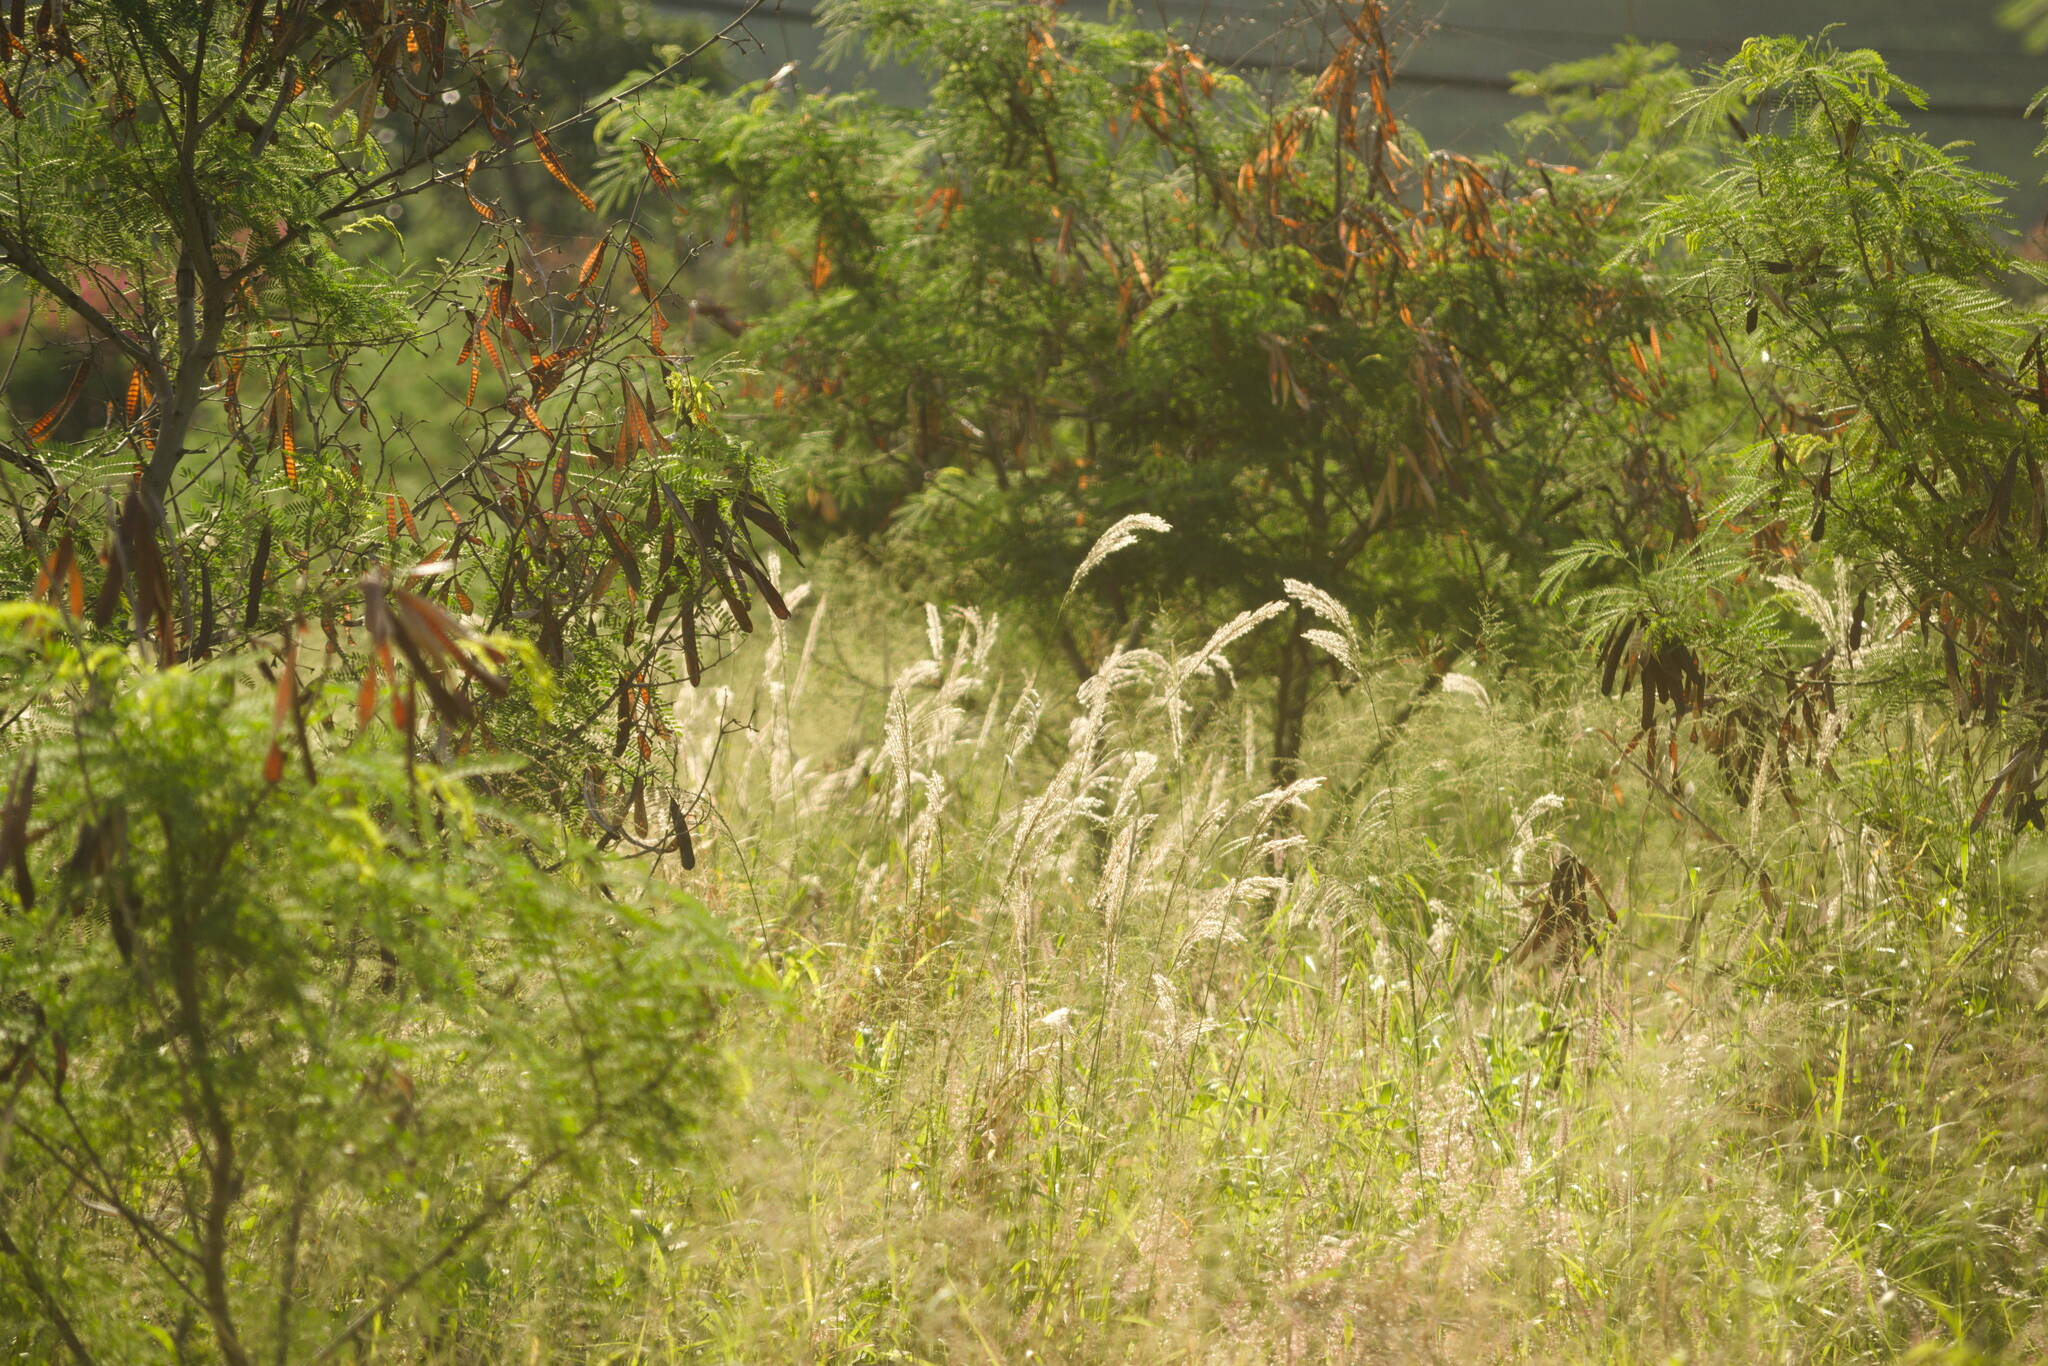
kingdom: Plantae
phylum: Tracheophyta
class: Liliopsida
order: Poales
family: Poaceae
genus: Digitaria
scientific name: Digitaria insularis
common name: Sourgrass
